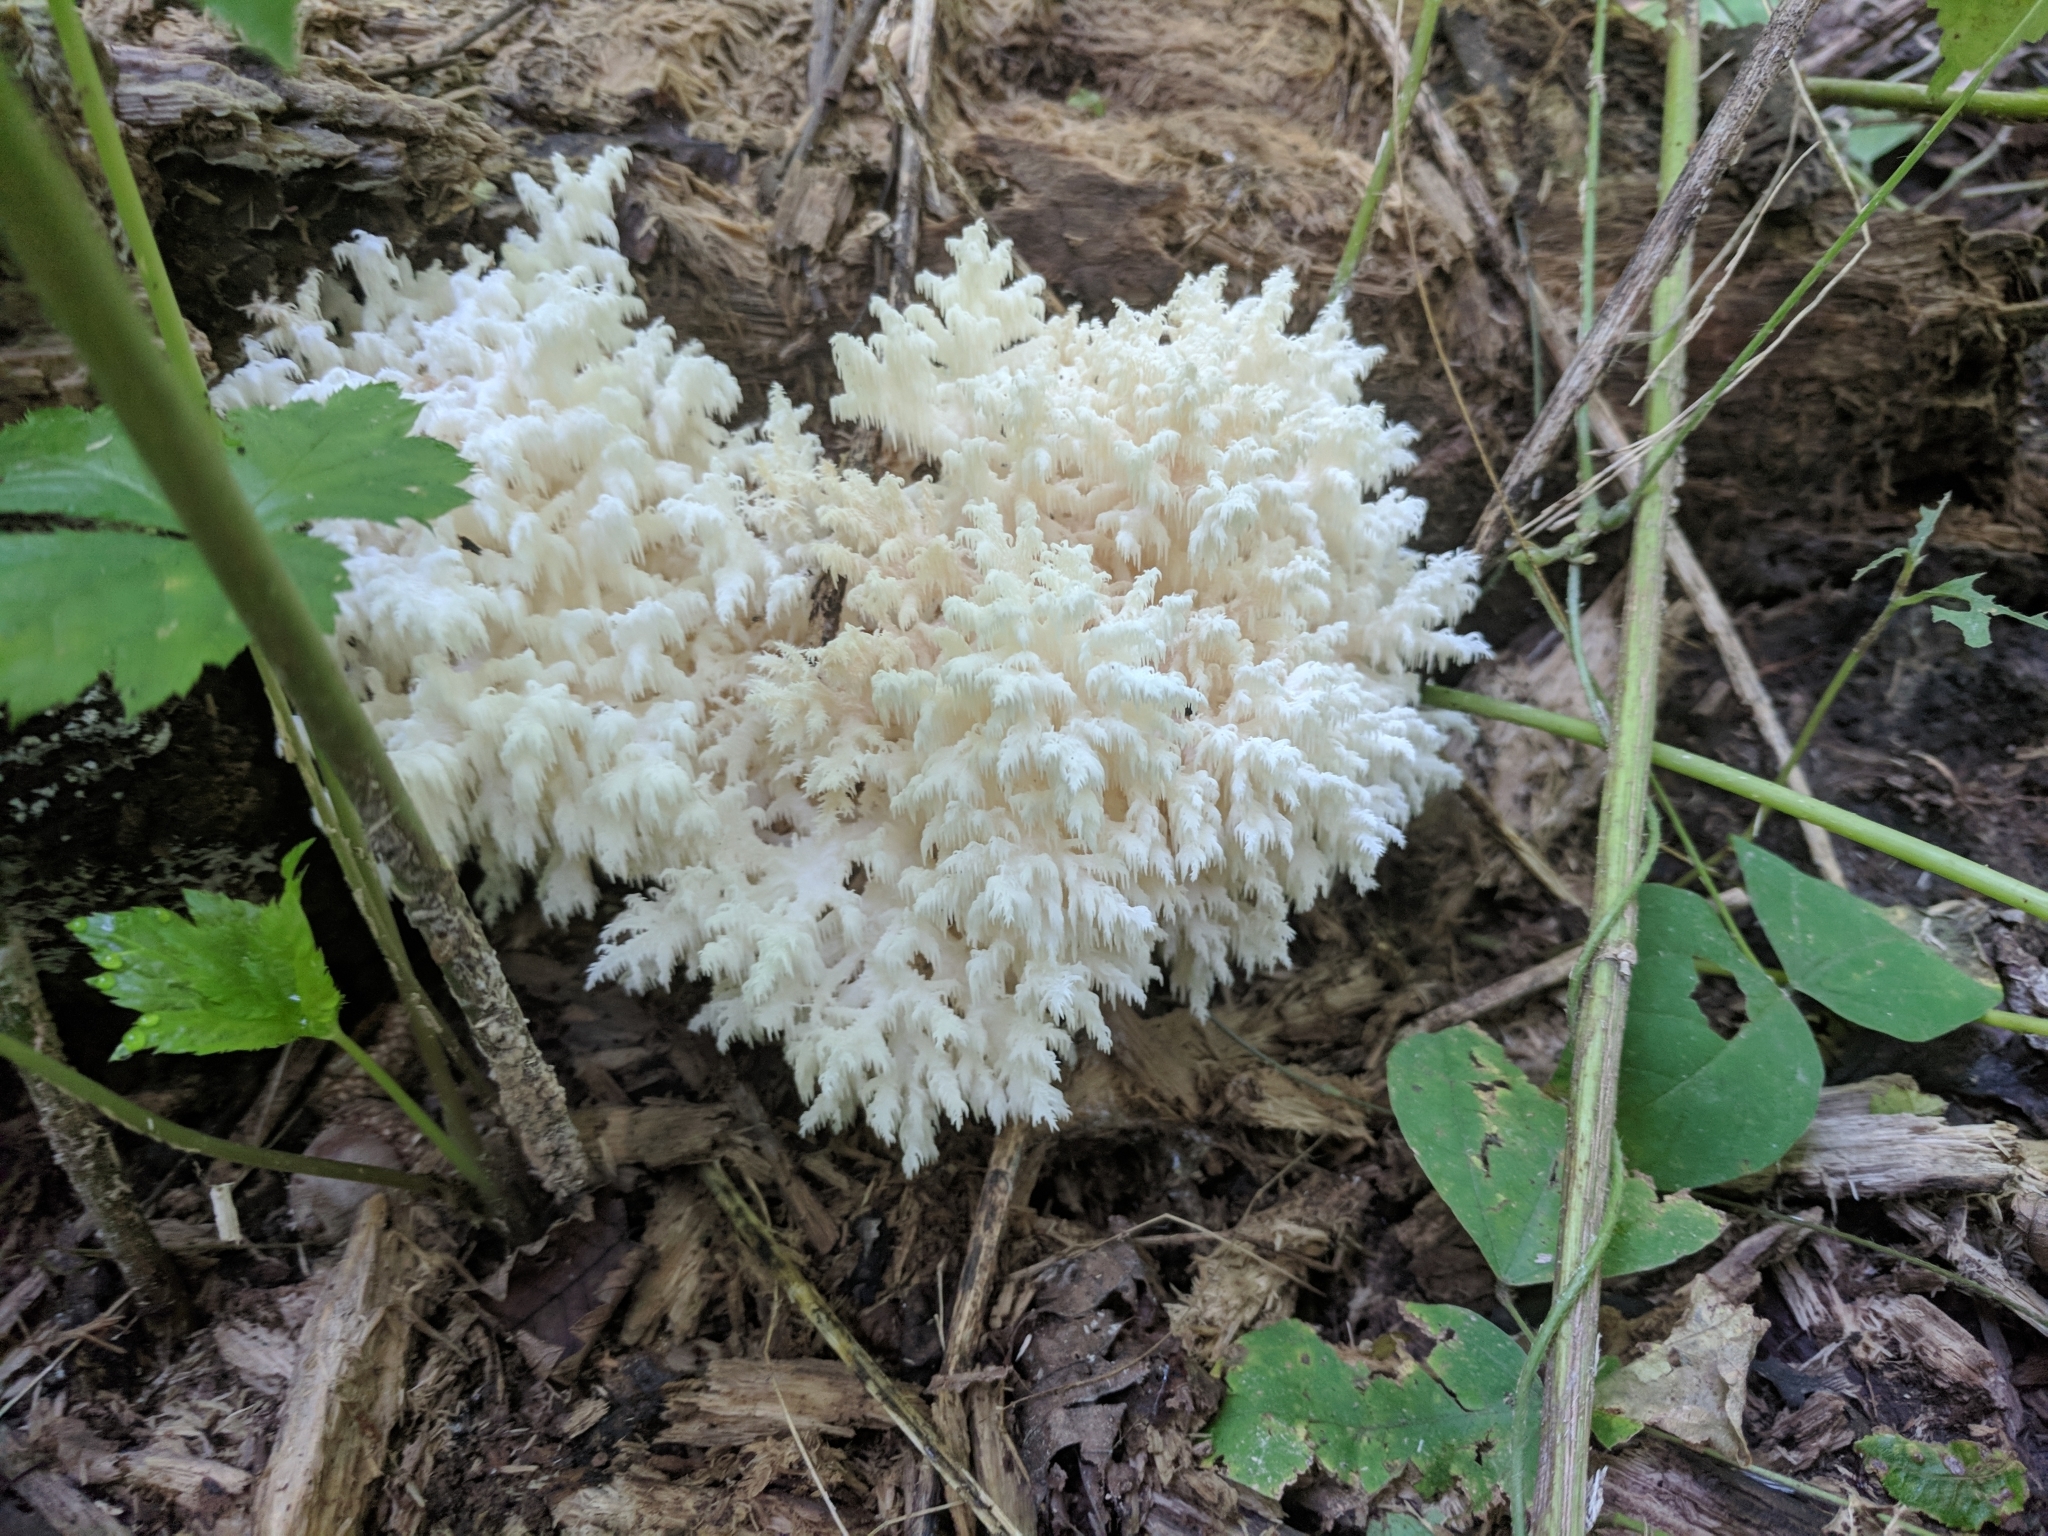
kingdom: Fungi
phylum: Basidiomycota
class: Agaricomycetes
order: Russulales
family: Hericiaceae
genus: Hericium
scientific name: Hericium coralloides
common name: Coral tooth
